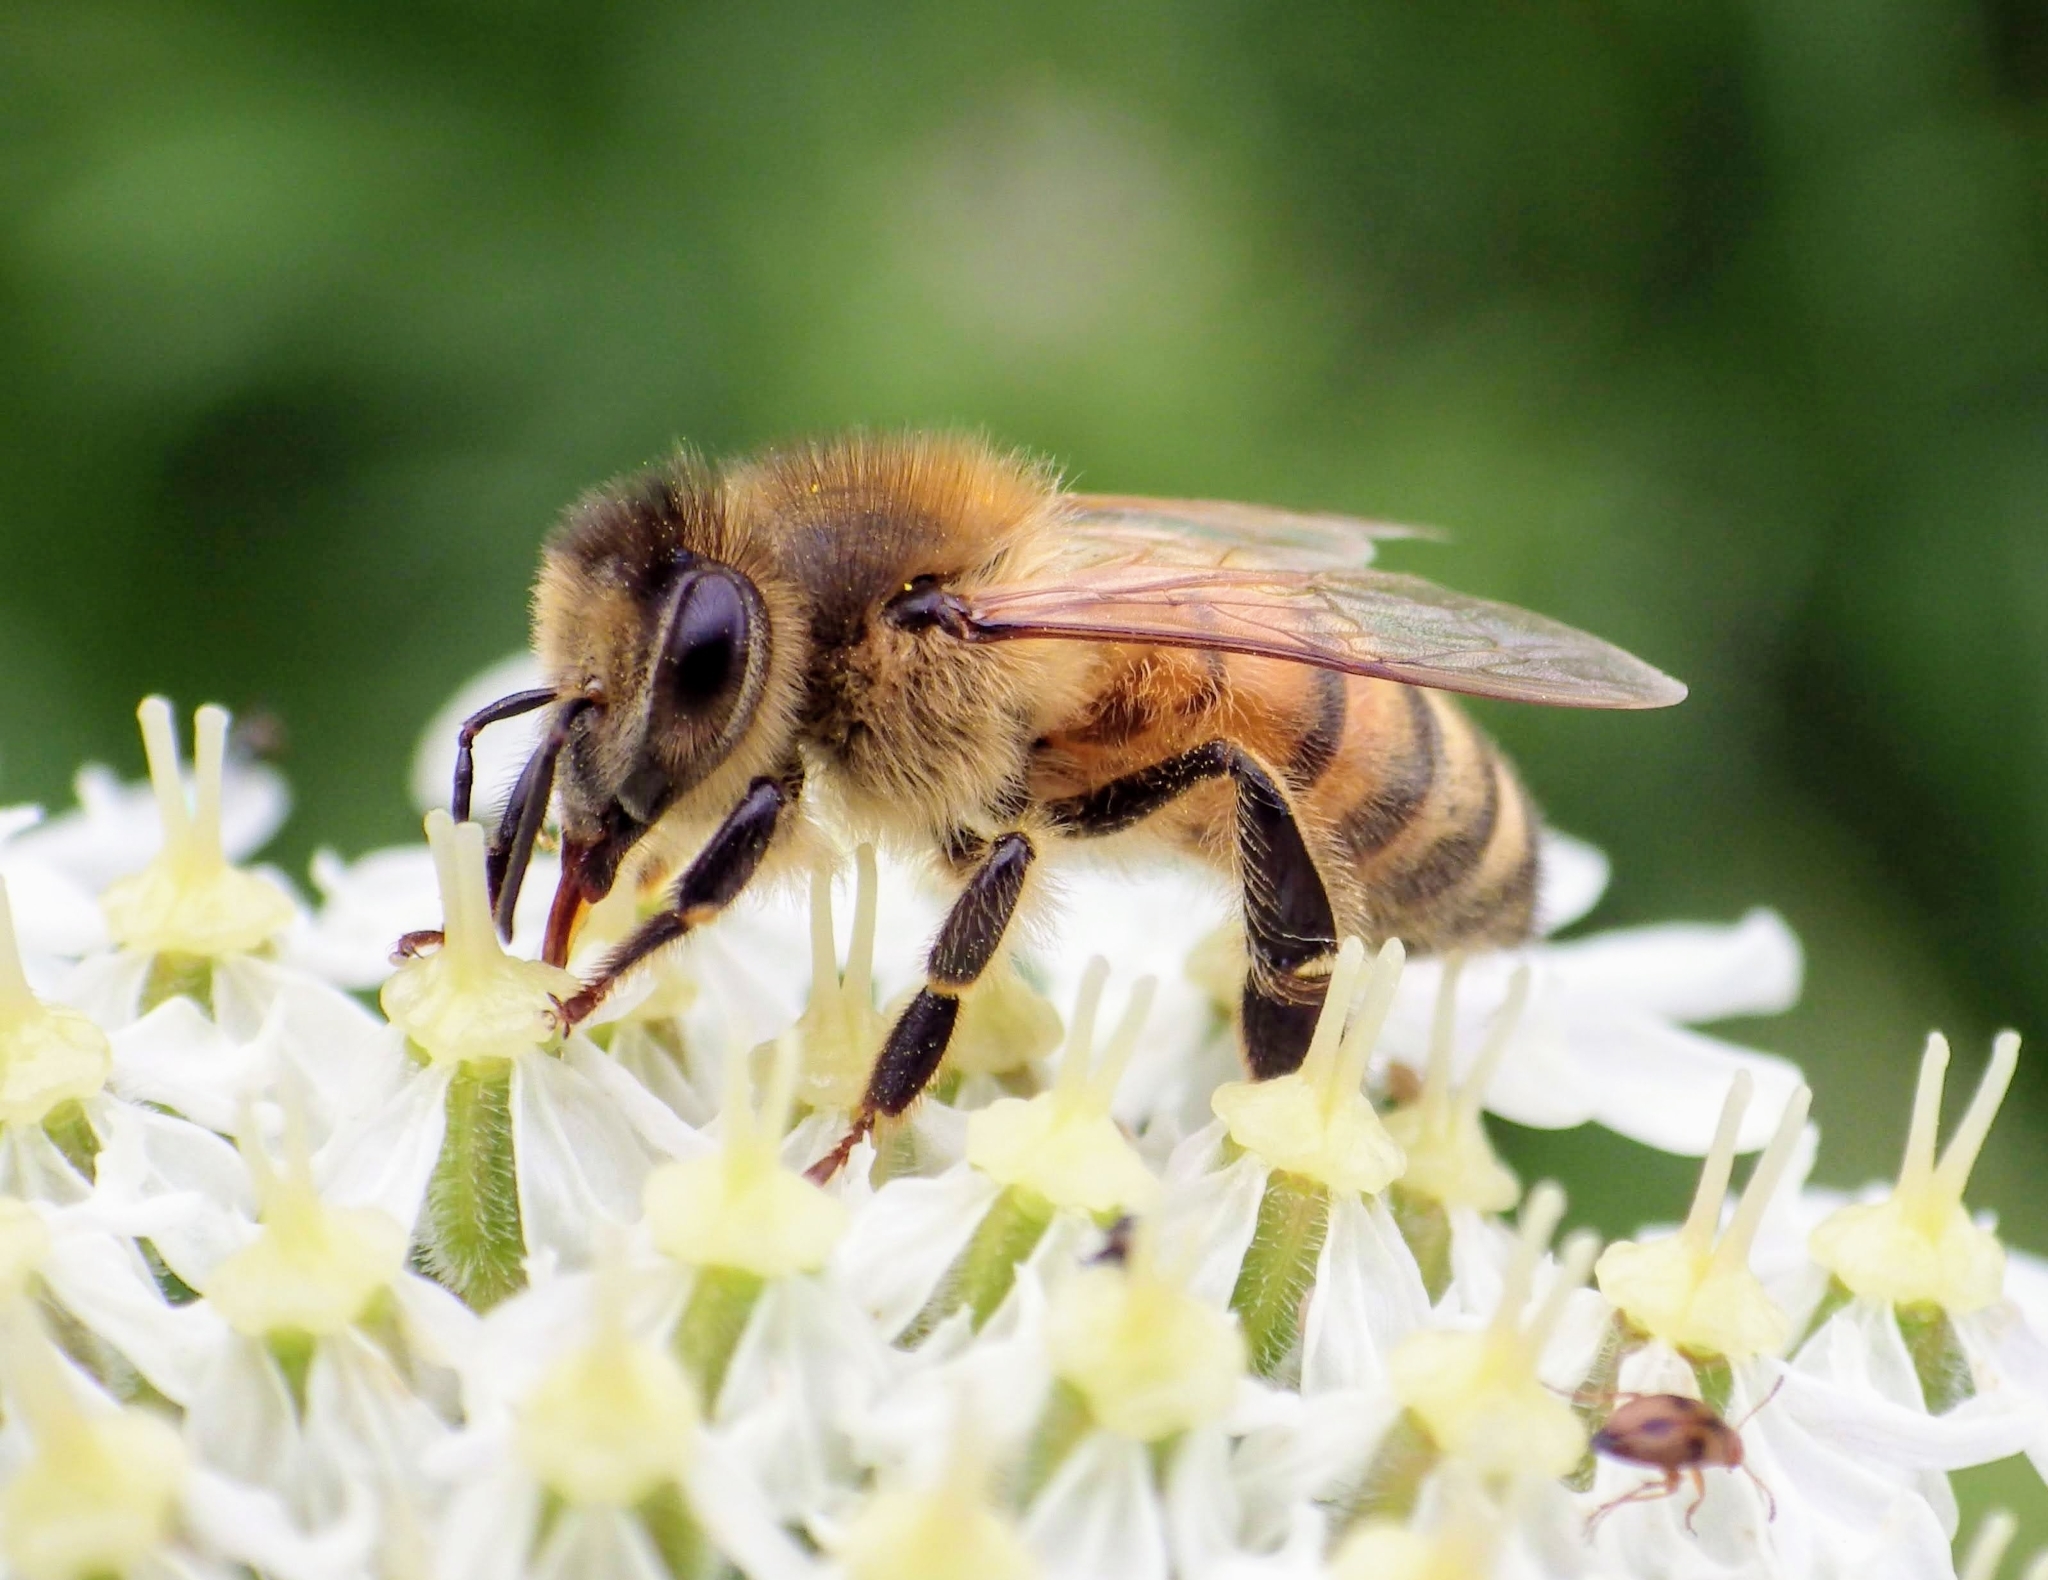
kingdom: Animalia
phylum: Arthropoda
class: Insecta
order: Hymenoptera
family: Apidae
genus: Apis
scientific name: Apis mellifera
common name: Honey bee
